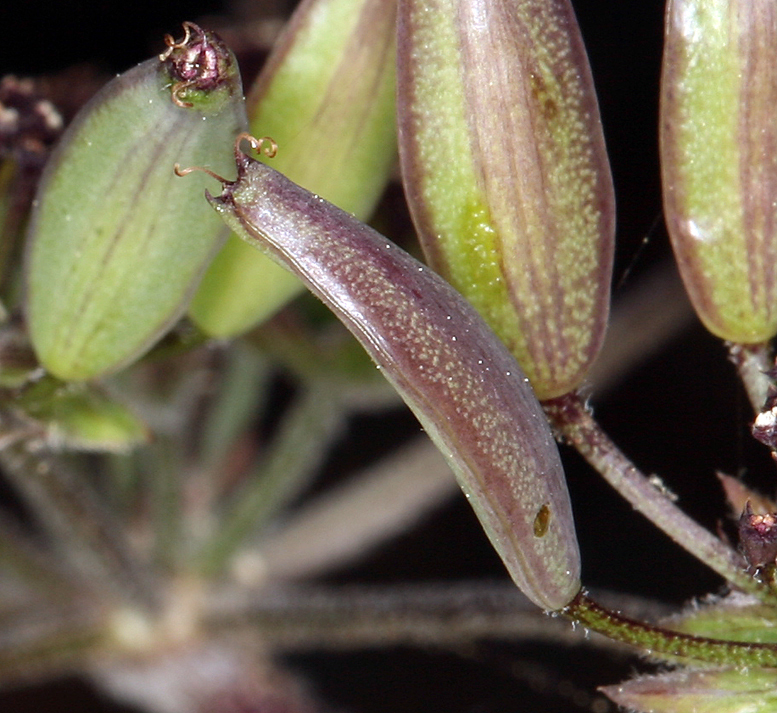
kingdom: Plantae
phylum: Tracheophyta
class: Magnoliopsida
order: Apiales
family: Apiaceae
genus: Lomatium
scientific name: Lomatium macrocarpum
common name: Big-seed biscuitroot
